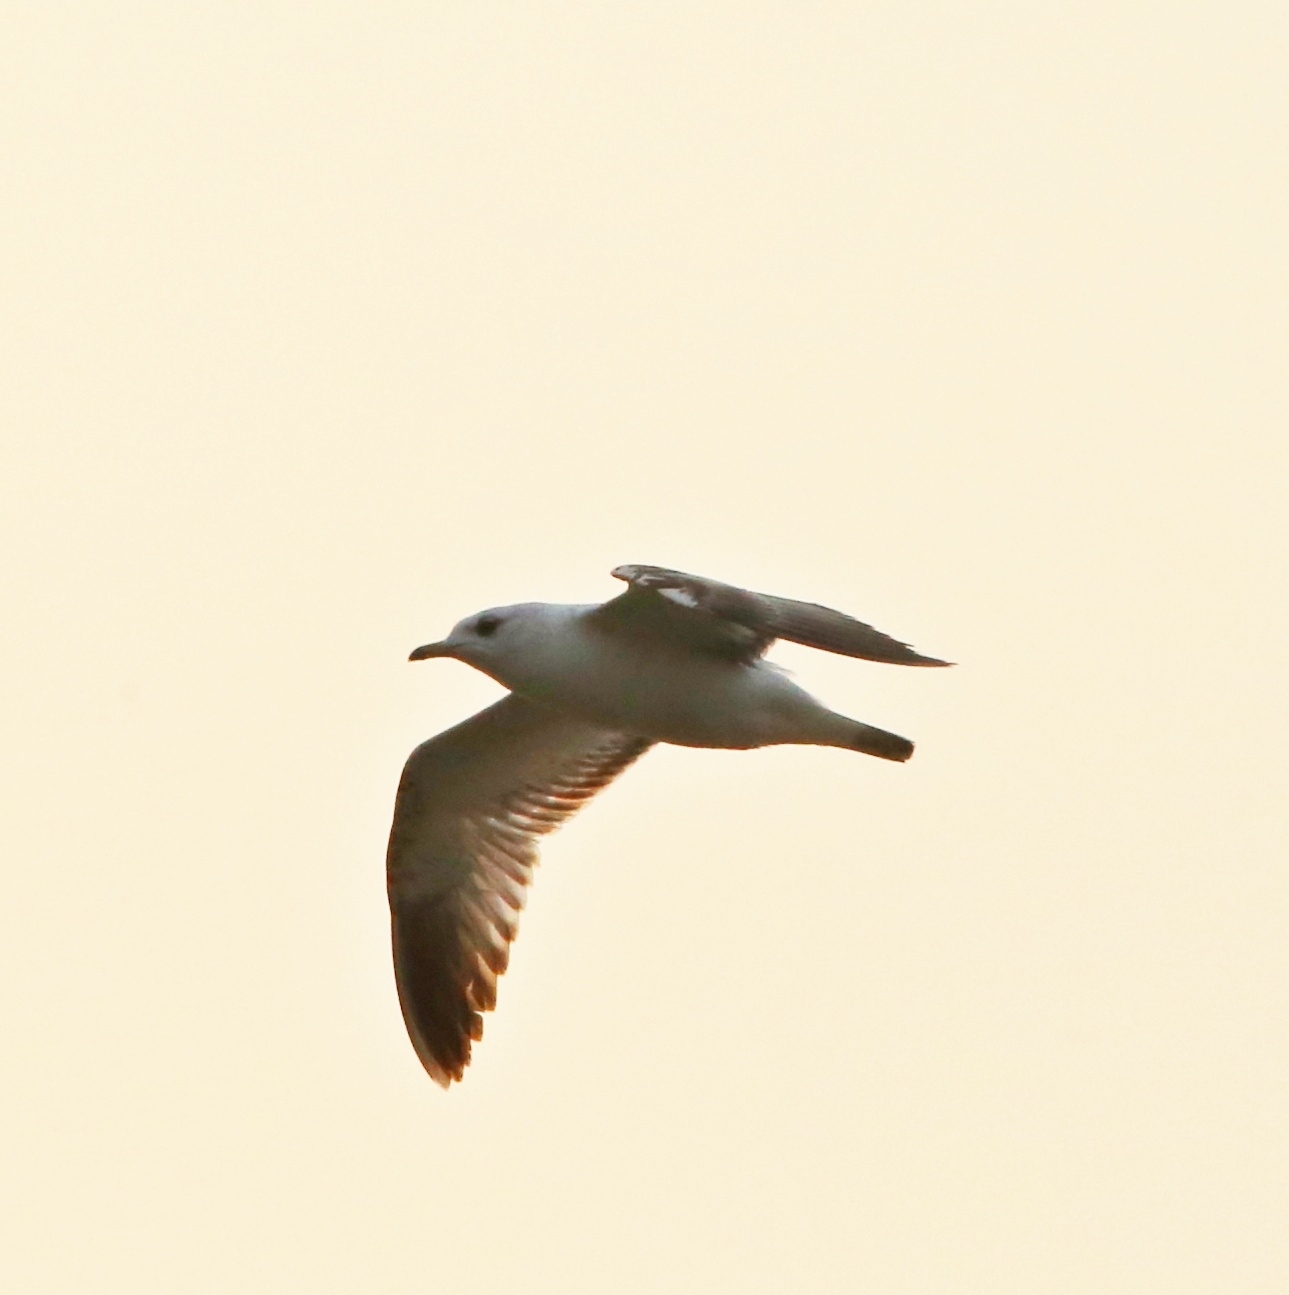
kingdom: Animalia
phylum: Chordata
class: Aves
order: Charadriiformes
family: Laridae
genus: Larus
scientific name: Larus canus
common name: Mew gull
